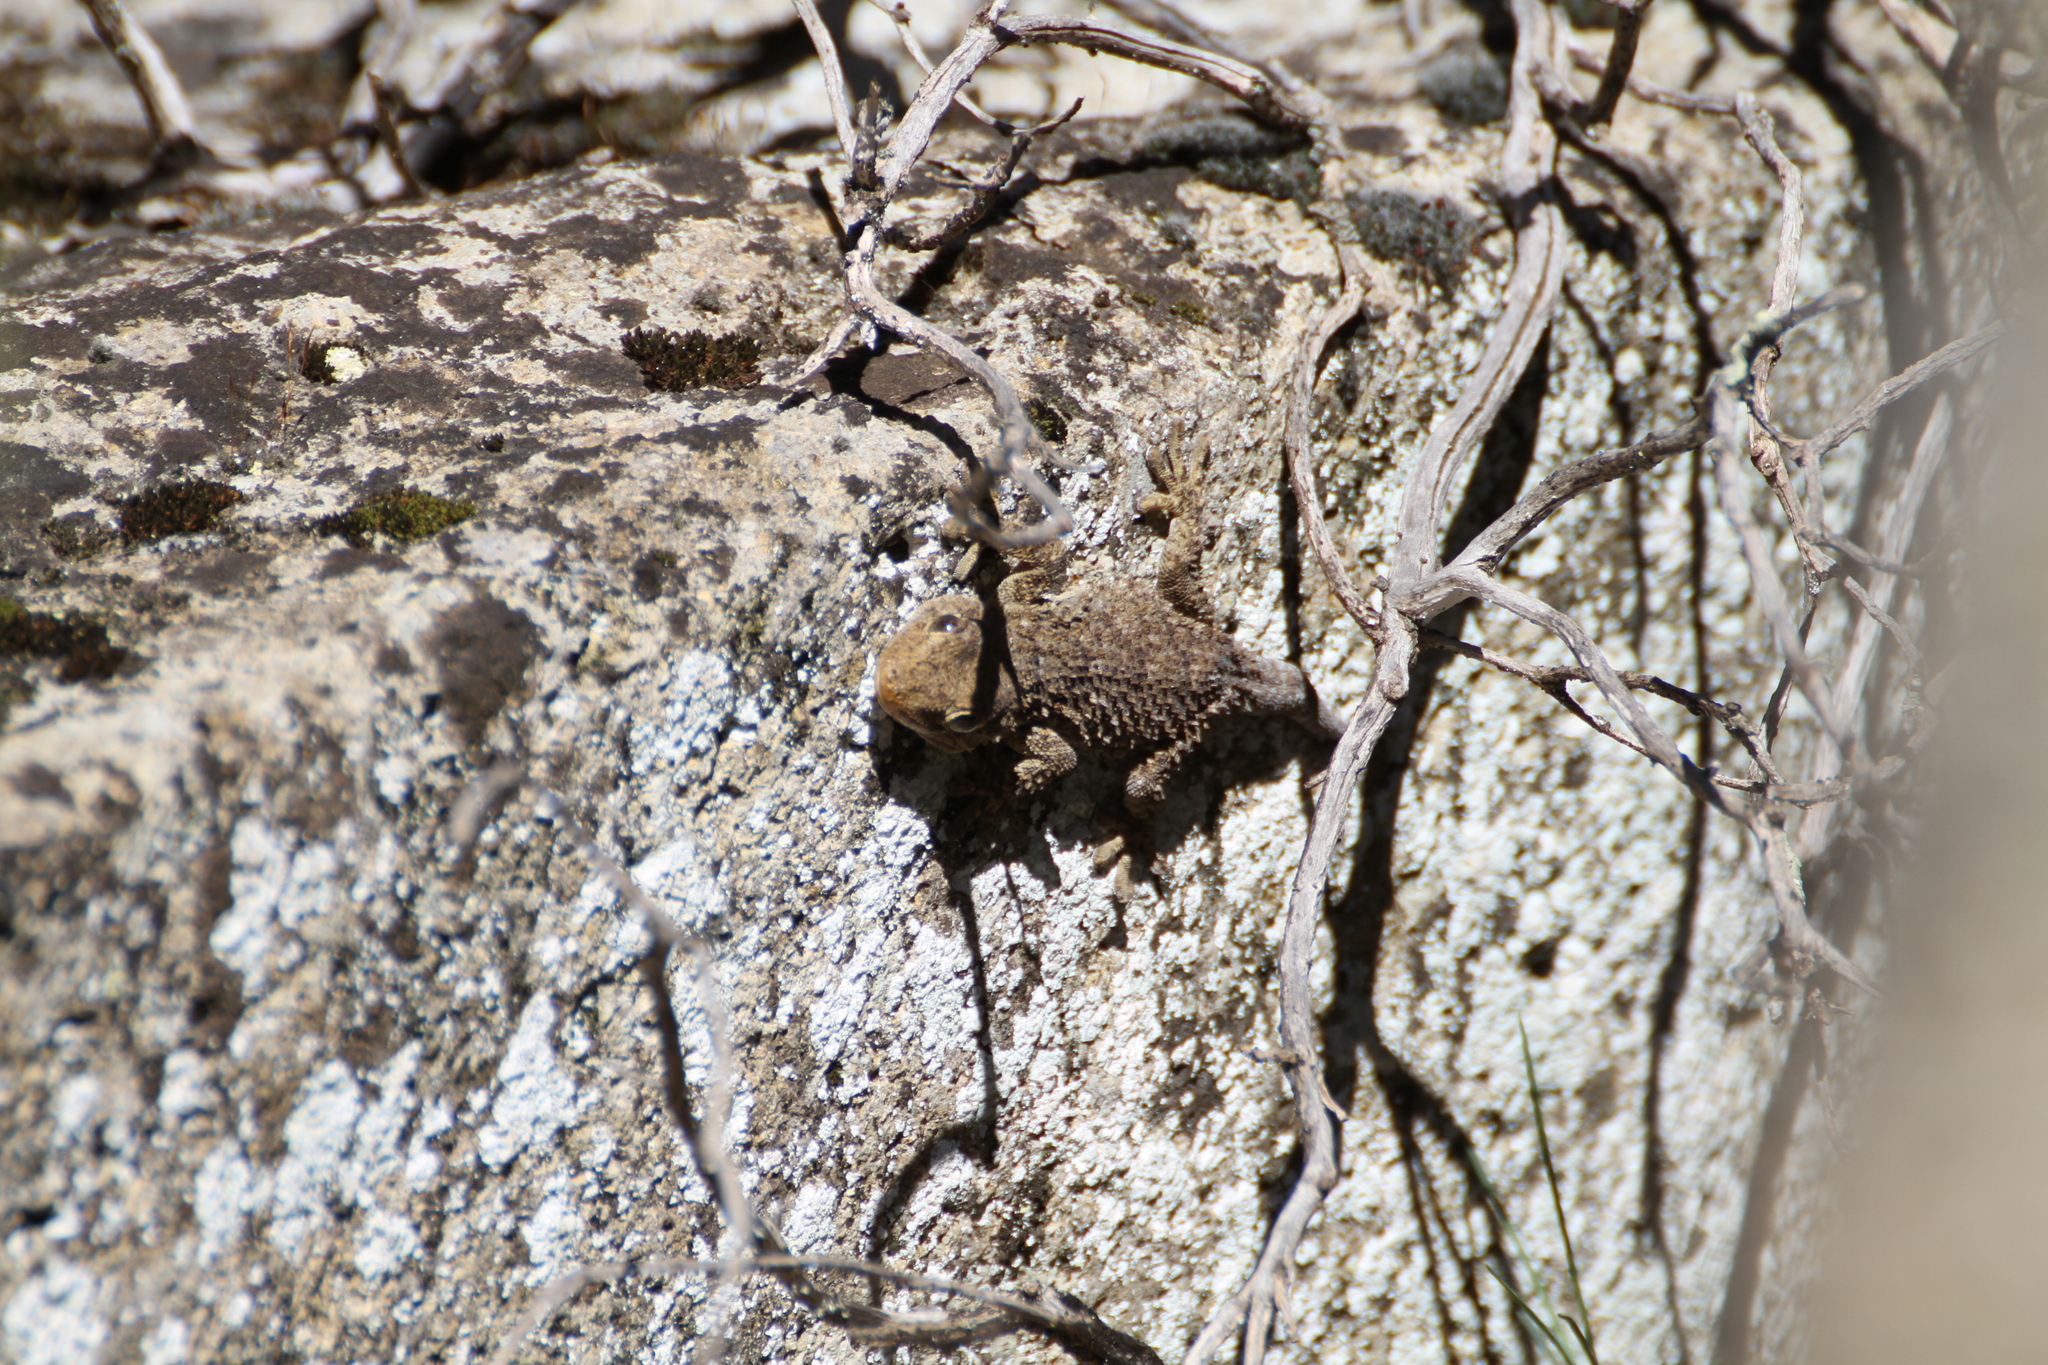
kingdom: Animalia
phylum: Chordata
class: Squamata
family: Phyllodactylidae
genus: Tarentola
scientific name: Tarentola mauritanica
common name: Moorish gecko
